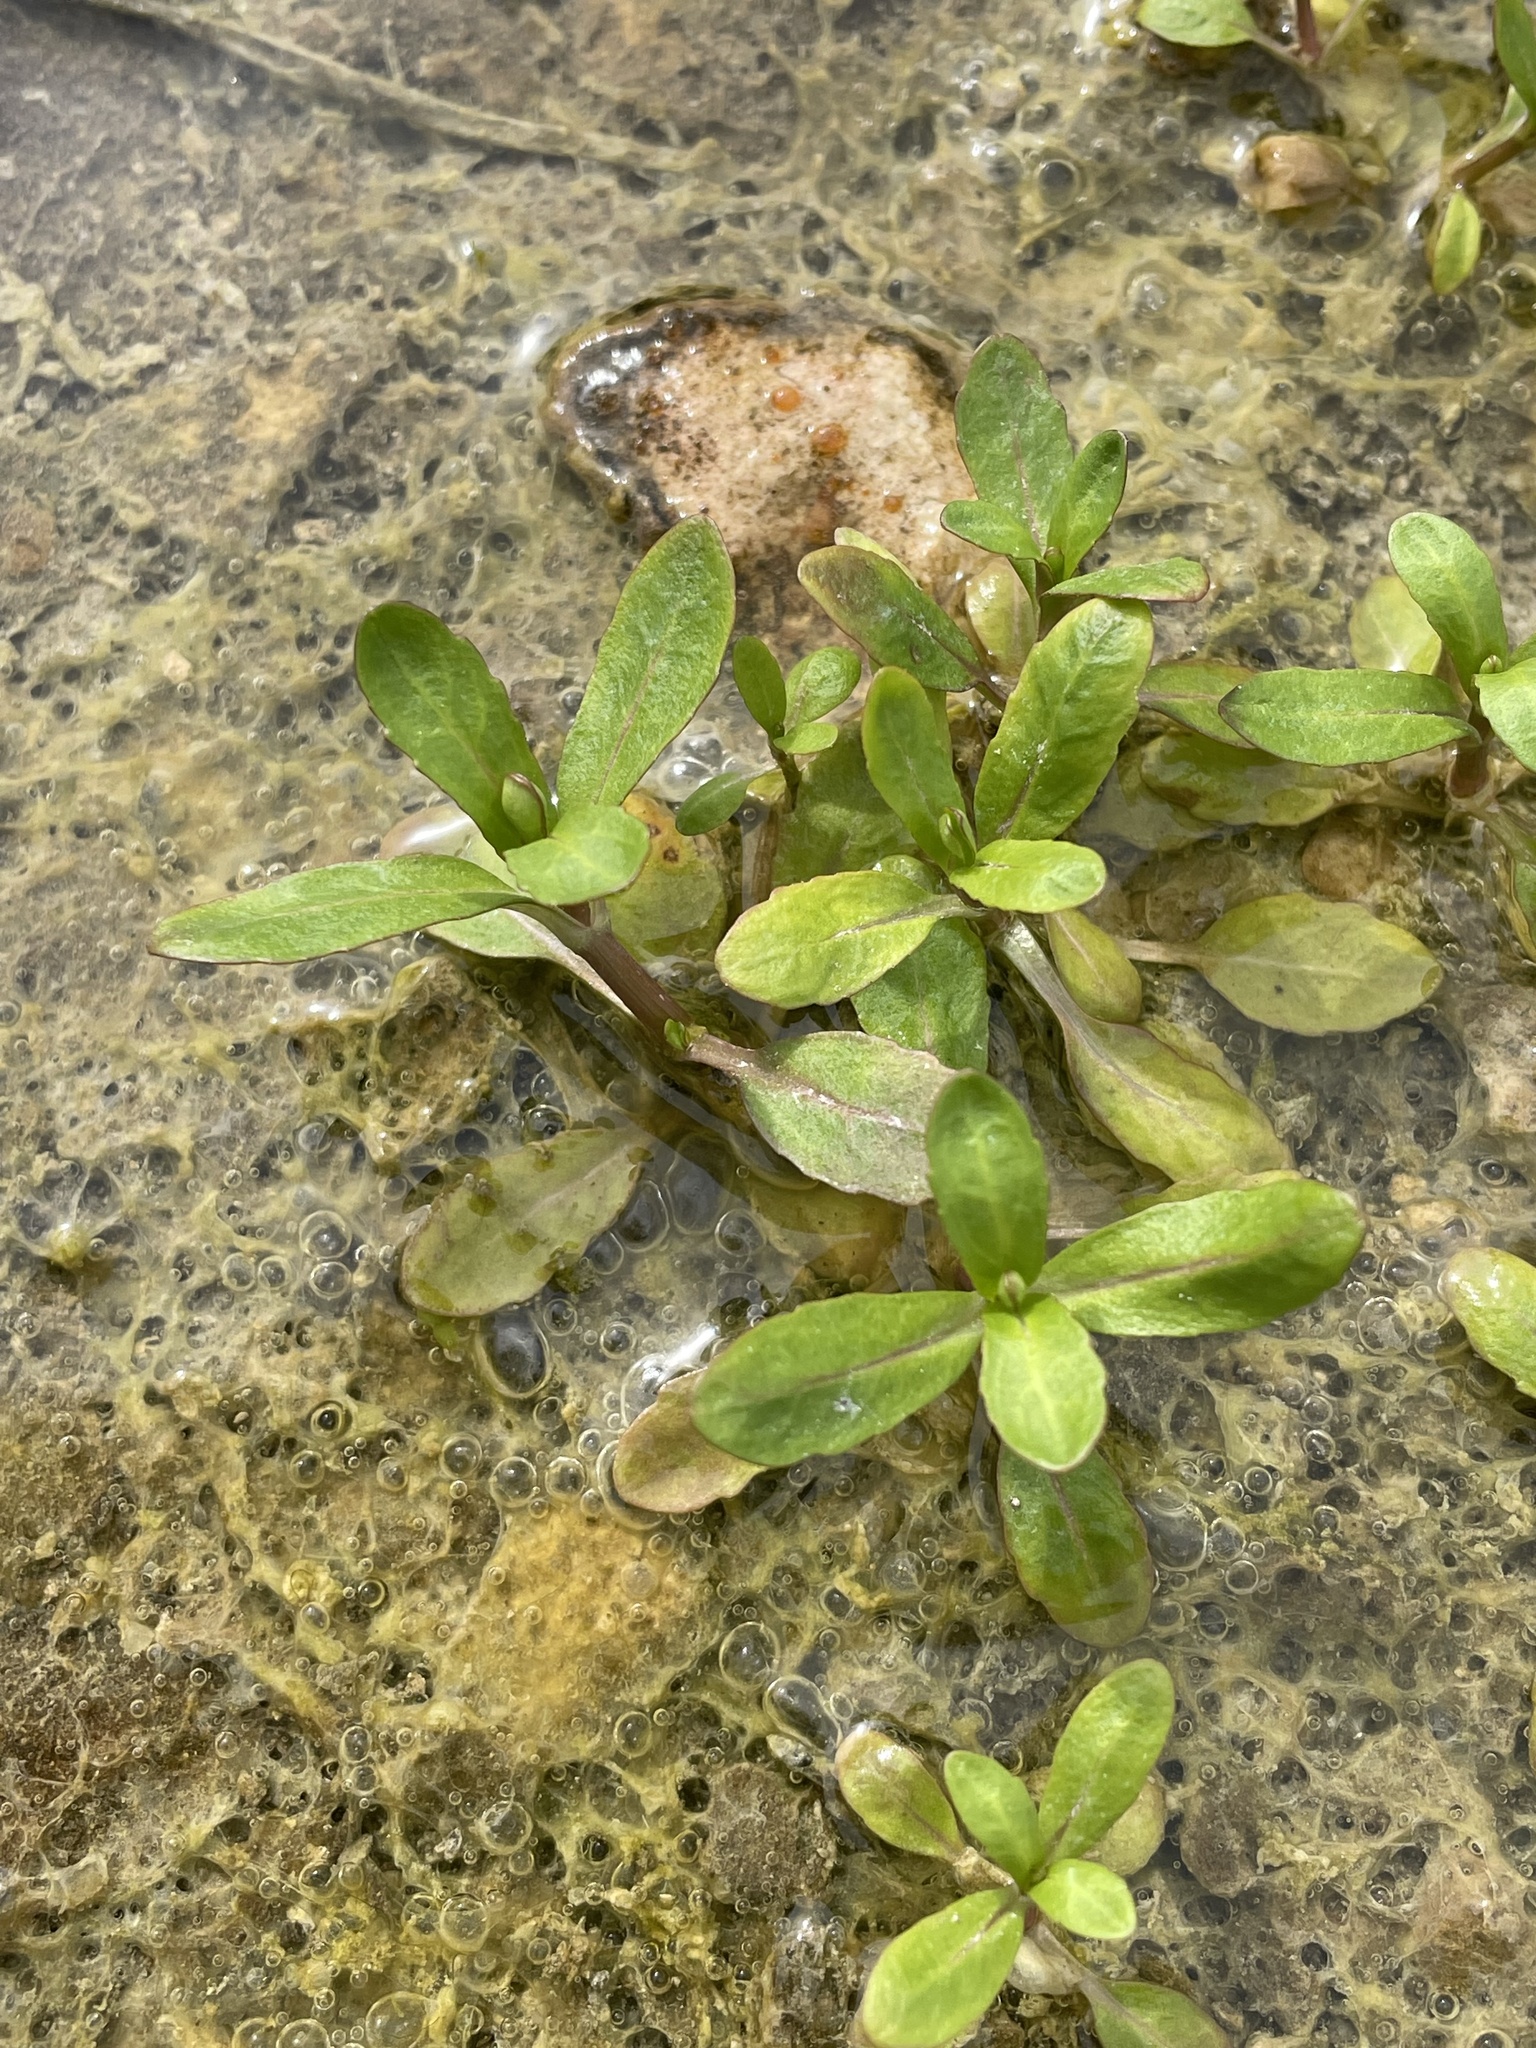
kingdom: Plantae
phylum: Tracheophyta
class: Magnoliopsida
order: Caryophyllales
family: Amaranthaceae
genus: Alternanthera
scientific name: Alternanthera philoxeroides
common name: Alligatorweed
